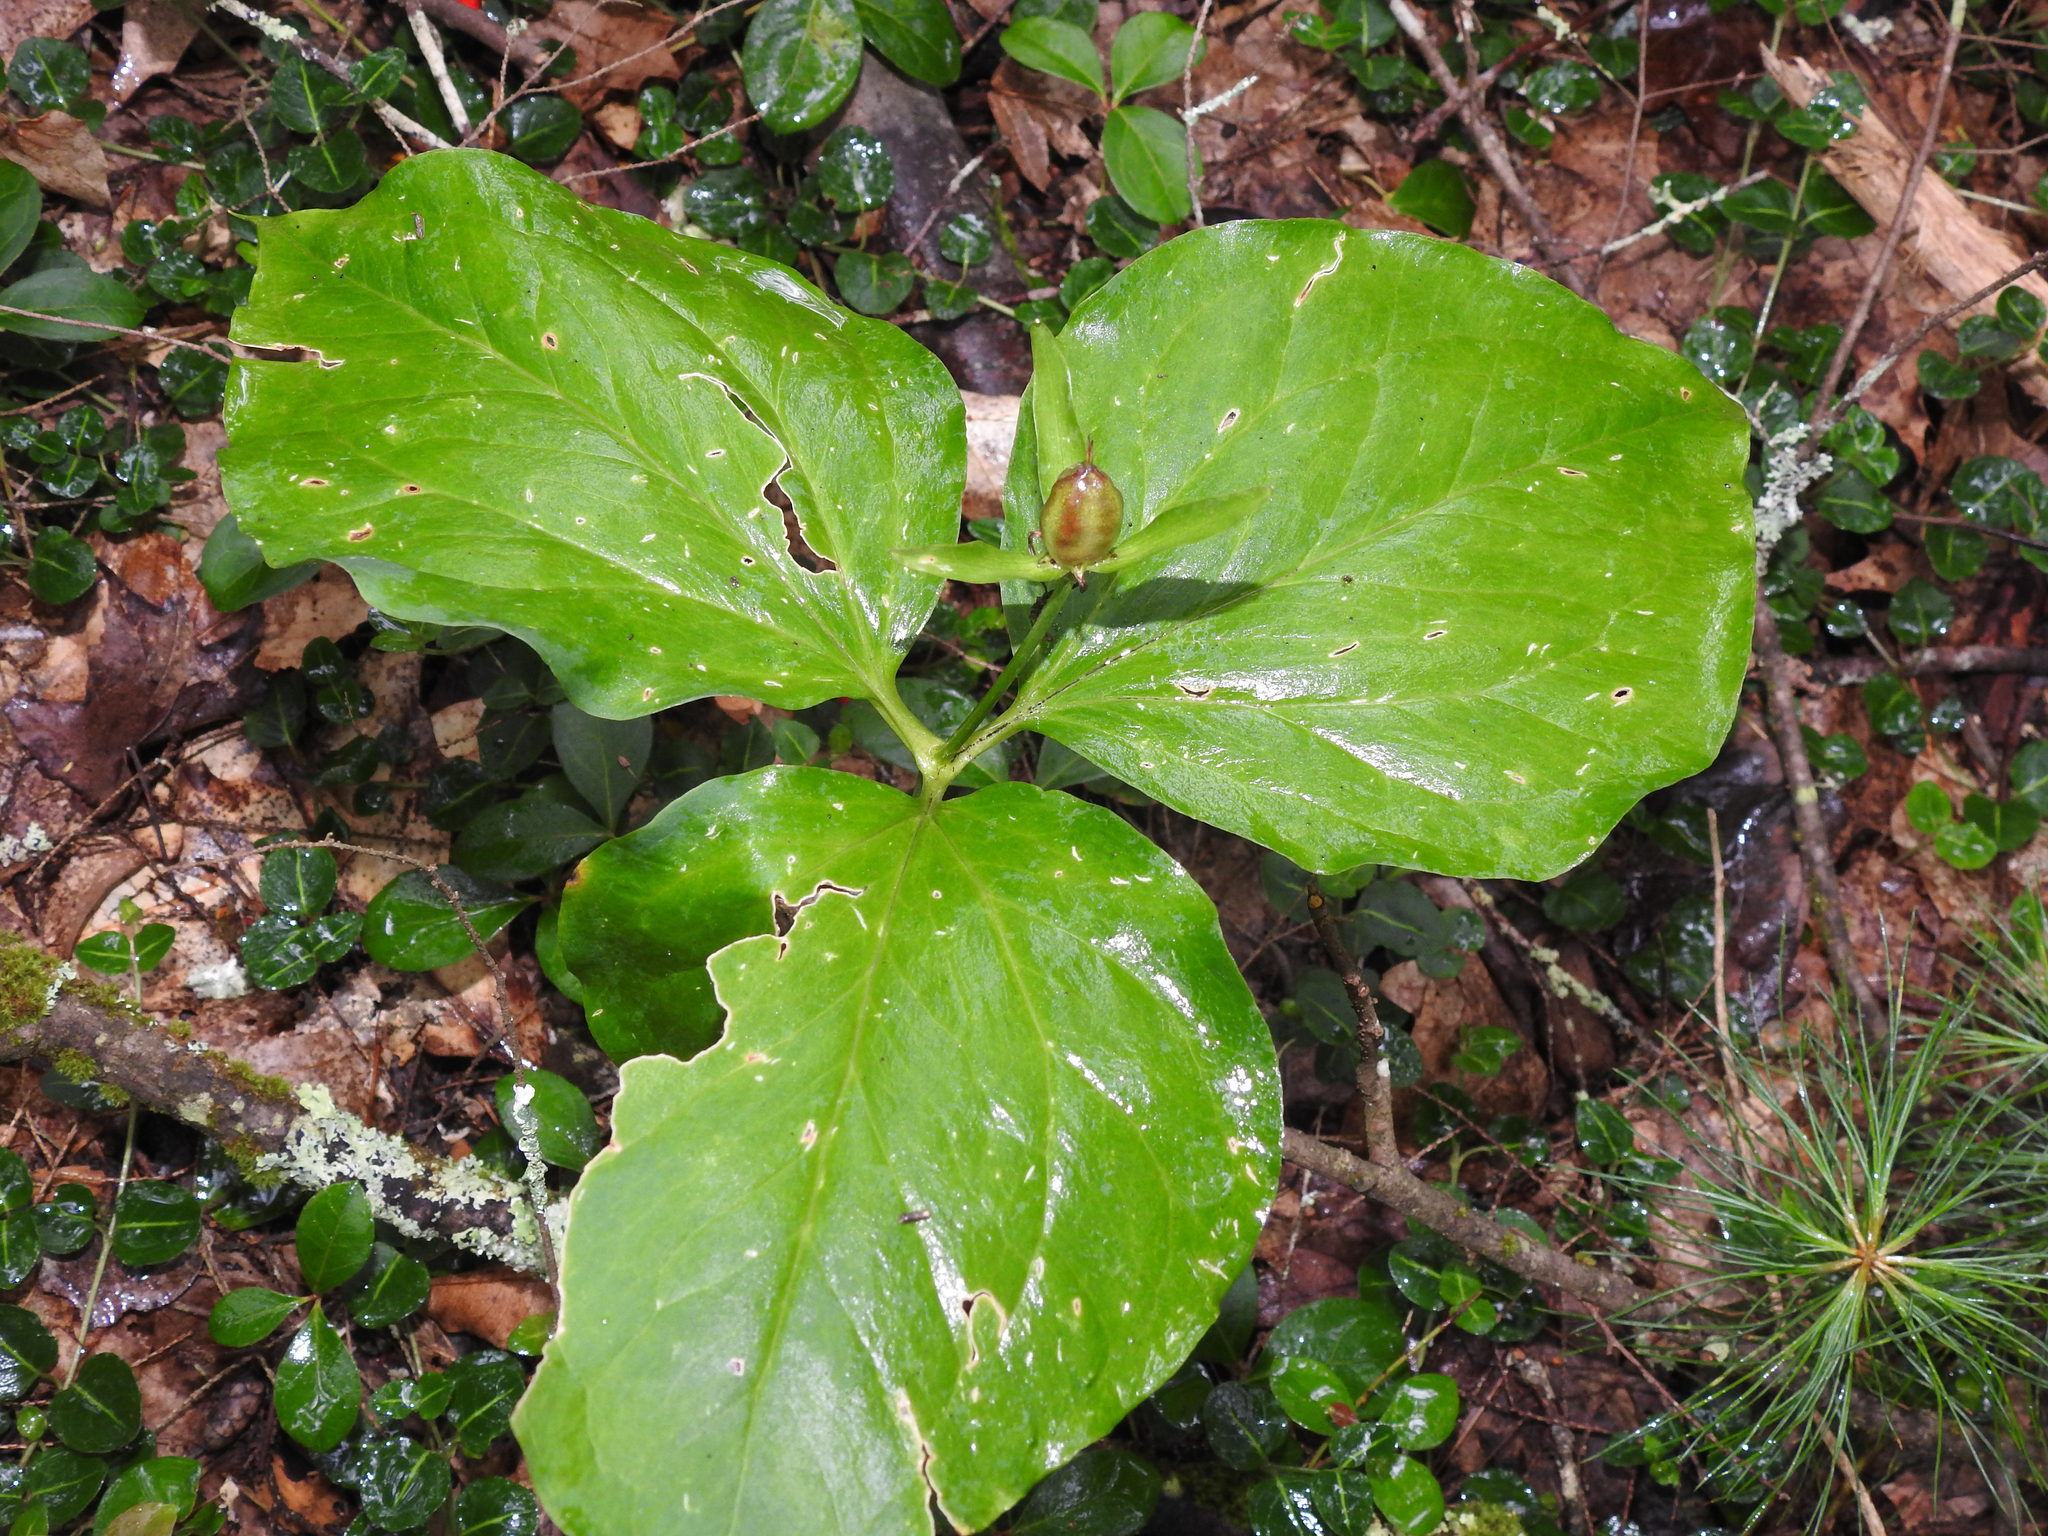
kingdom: Plantae
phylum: Tracheophyta
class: Liliopsida
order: Liliales
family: Melanthiaceae
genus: Trillium
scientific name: Trillium undulatum
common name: Paint trillium
